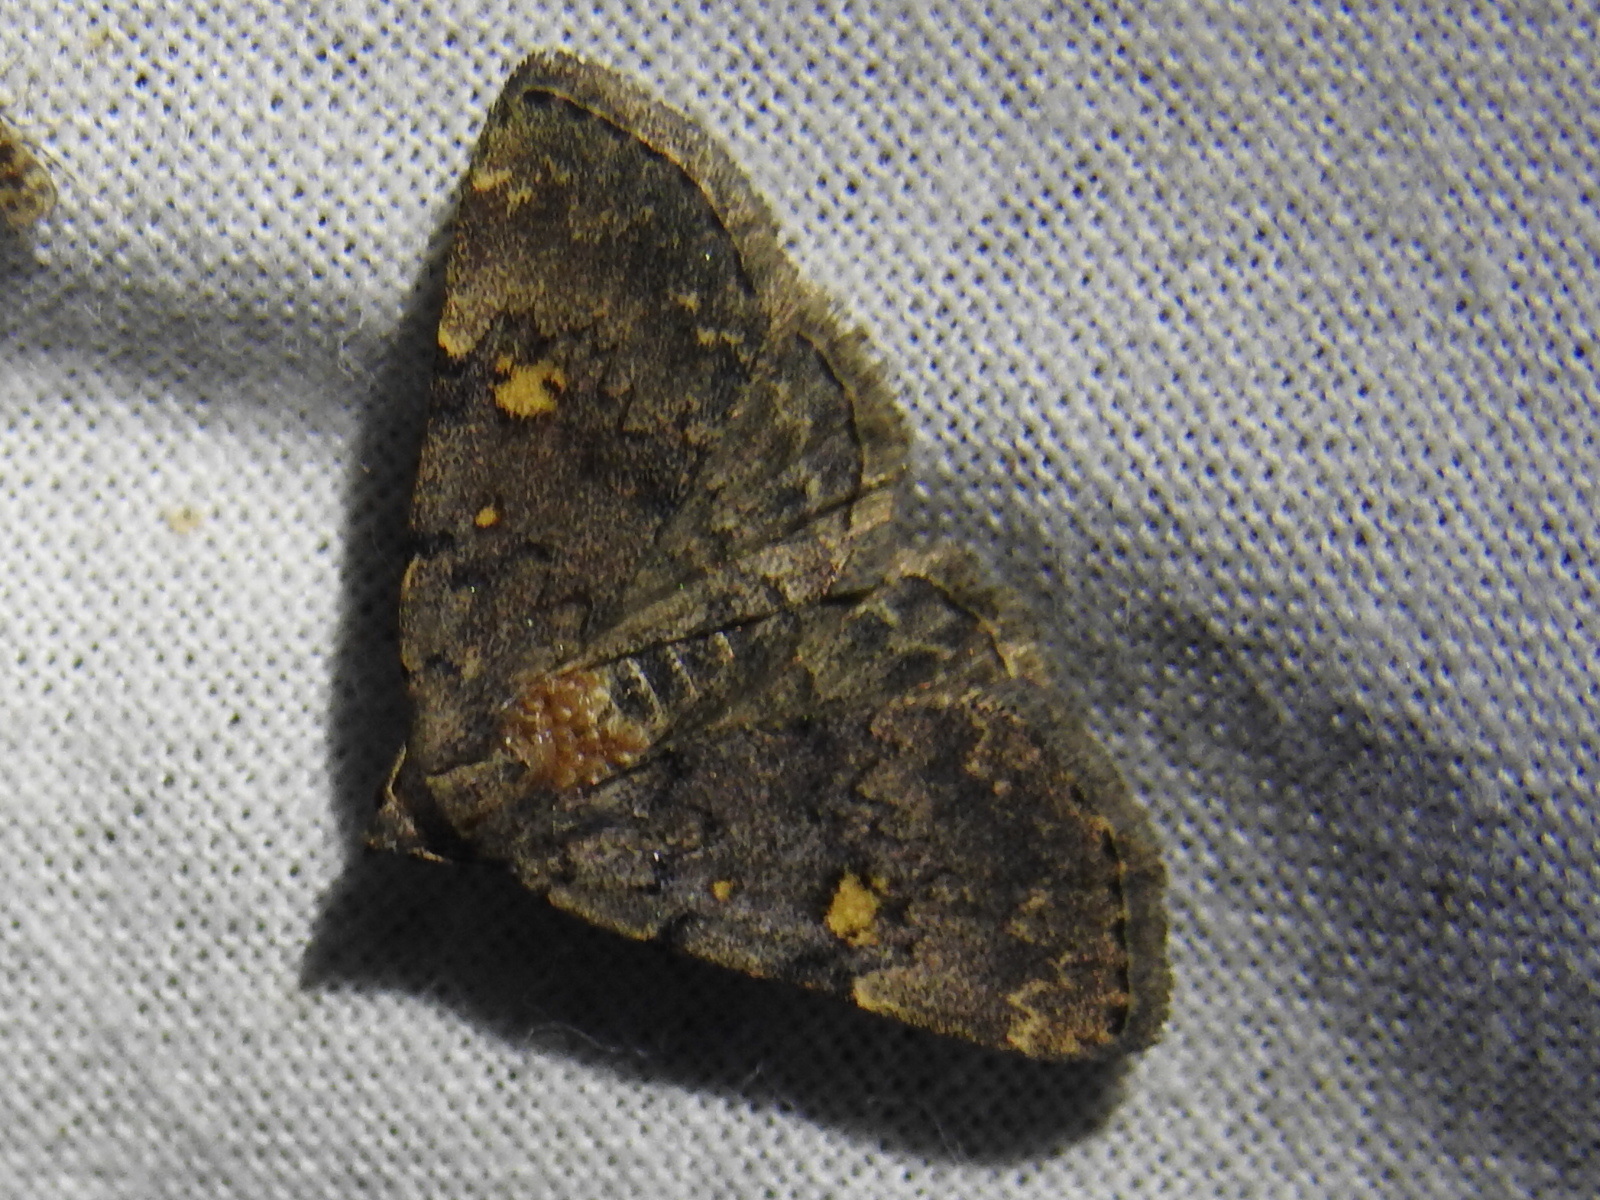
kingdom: Animalia
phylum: Arthropoda
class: Insecta
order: Lepidoptera
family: Erebidae
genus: Idia
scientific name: Idia aemula
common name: Common idia moth
